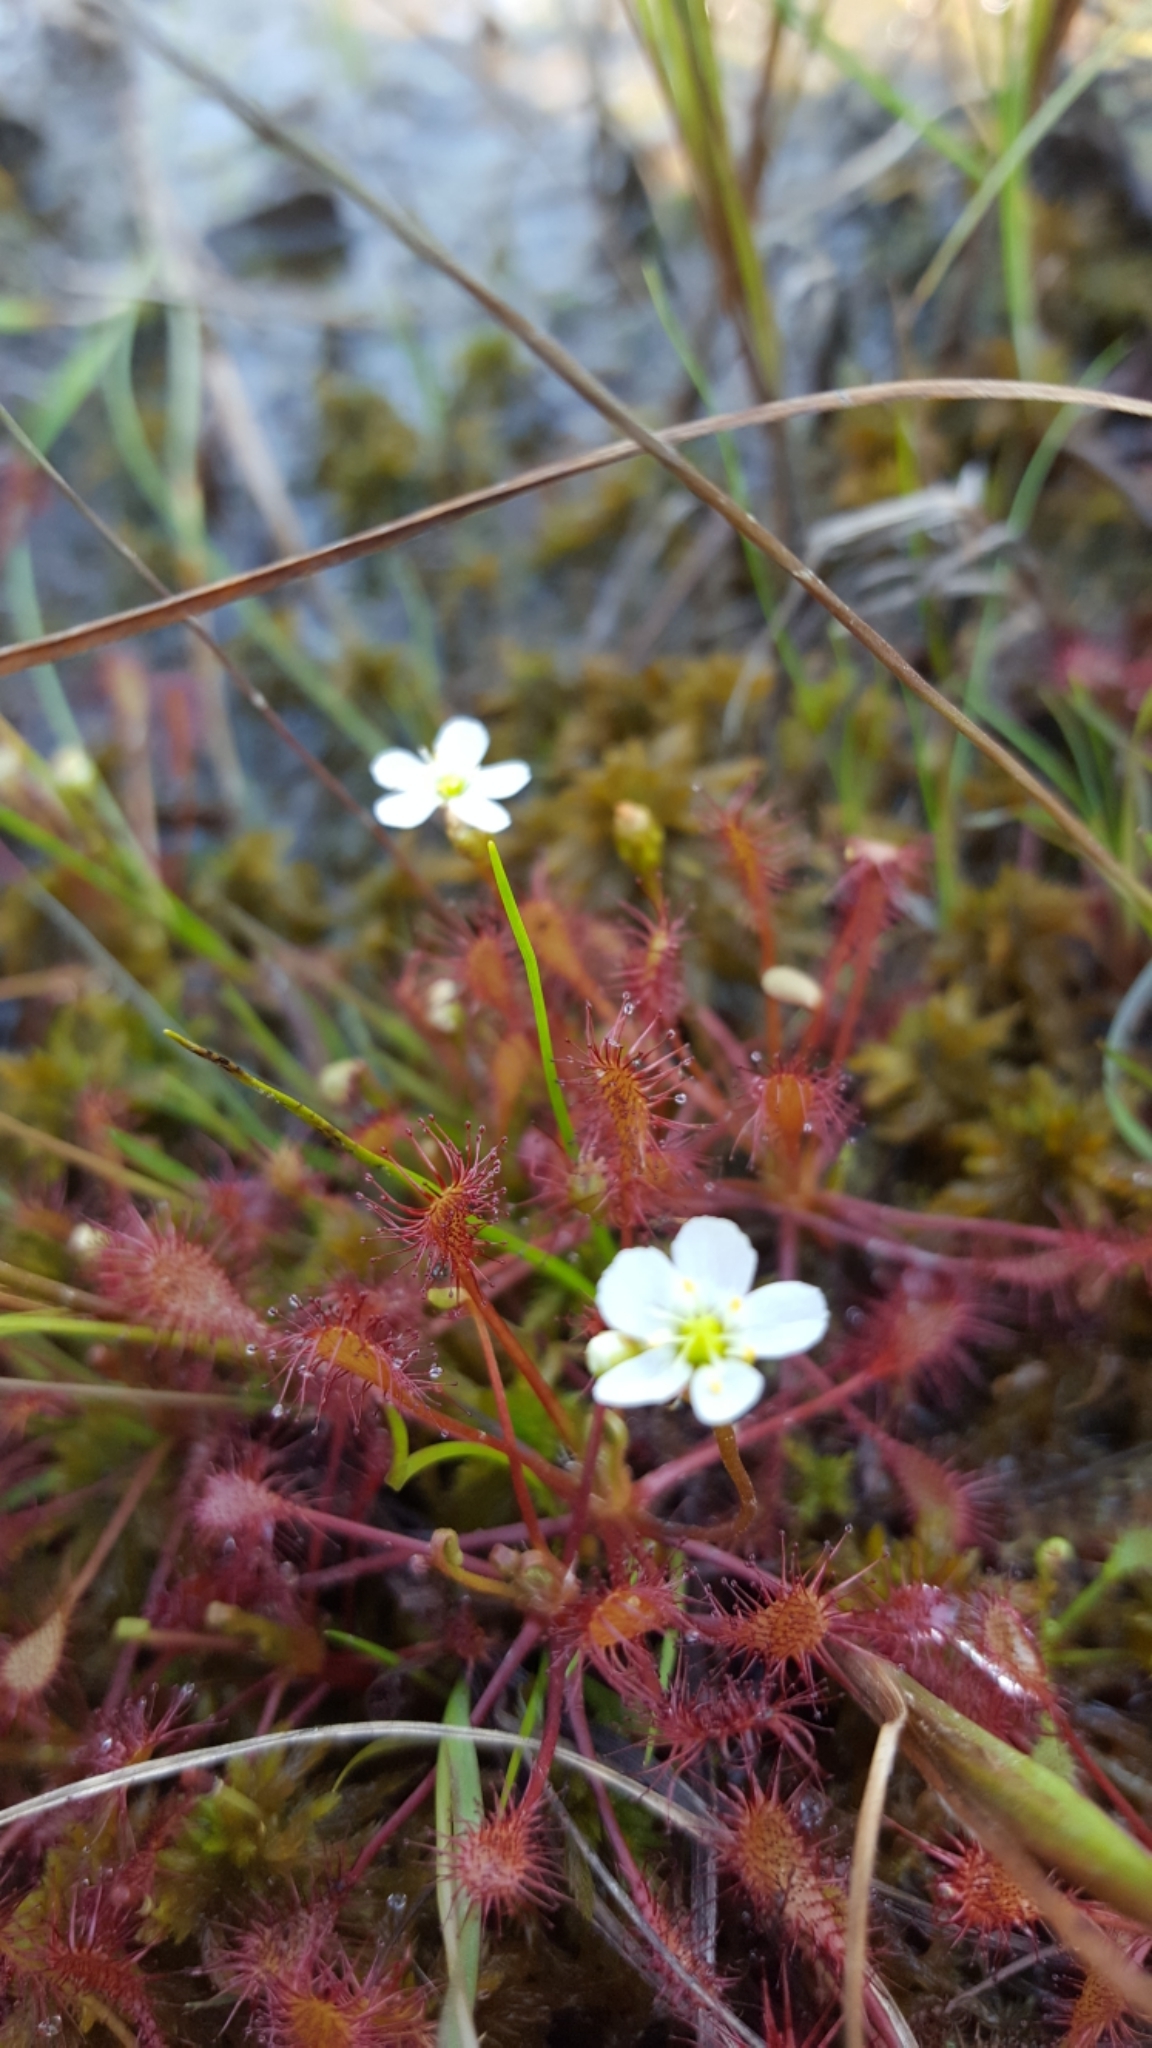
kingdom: Plantae
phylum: Tracheophyta
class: Magnoliopsida
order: Caryophyllales
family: Droseraceae
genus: Drosera
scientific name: Drosera intermedia
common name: Oblong-leaved sundew
